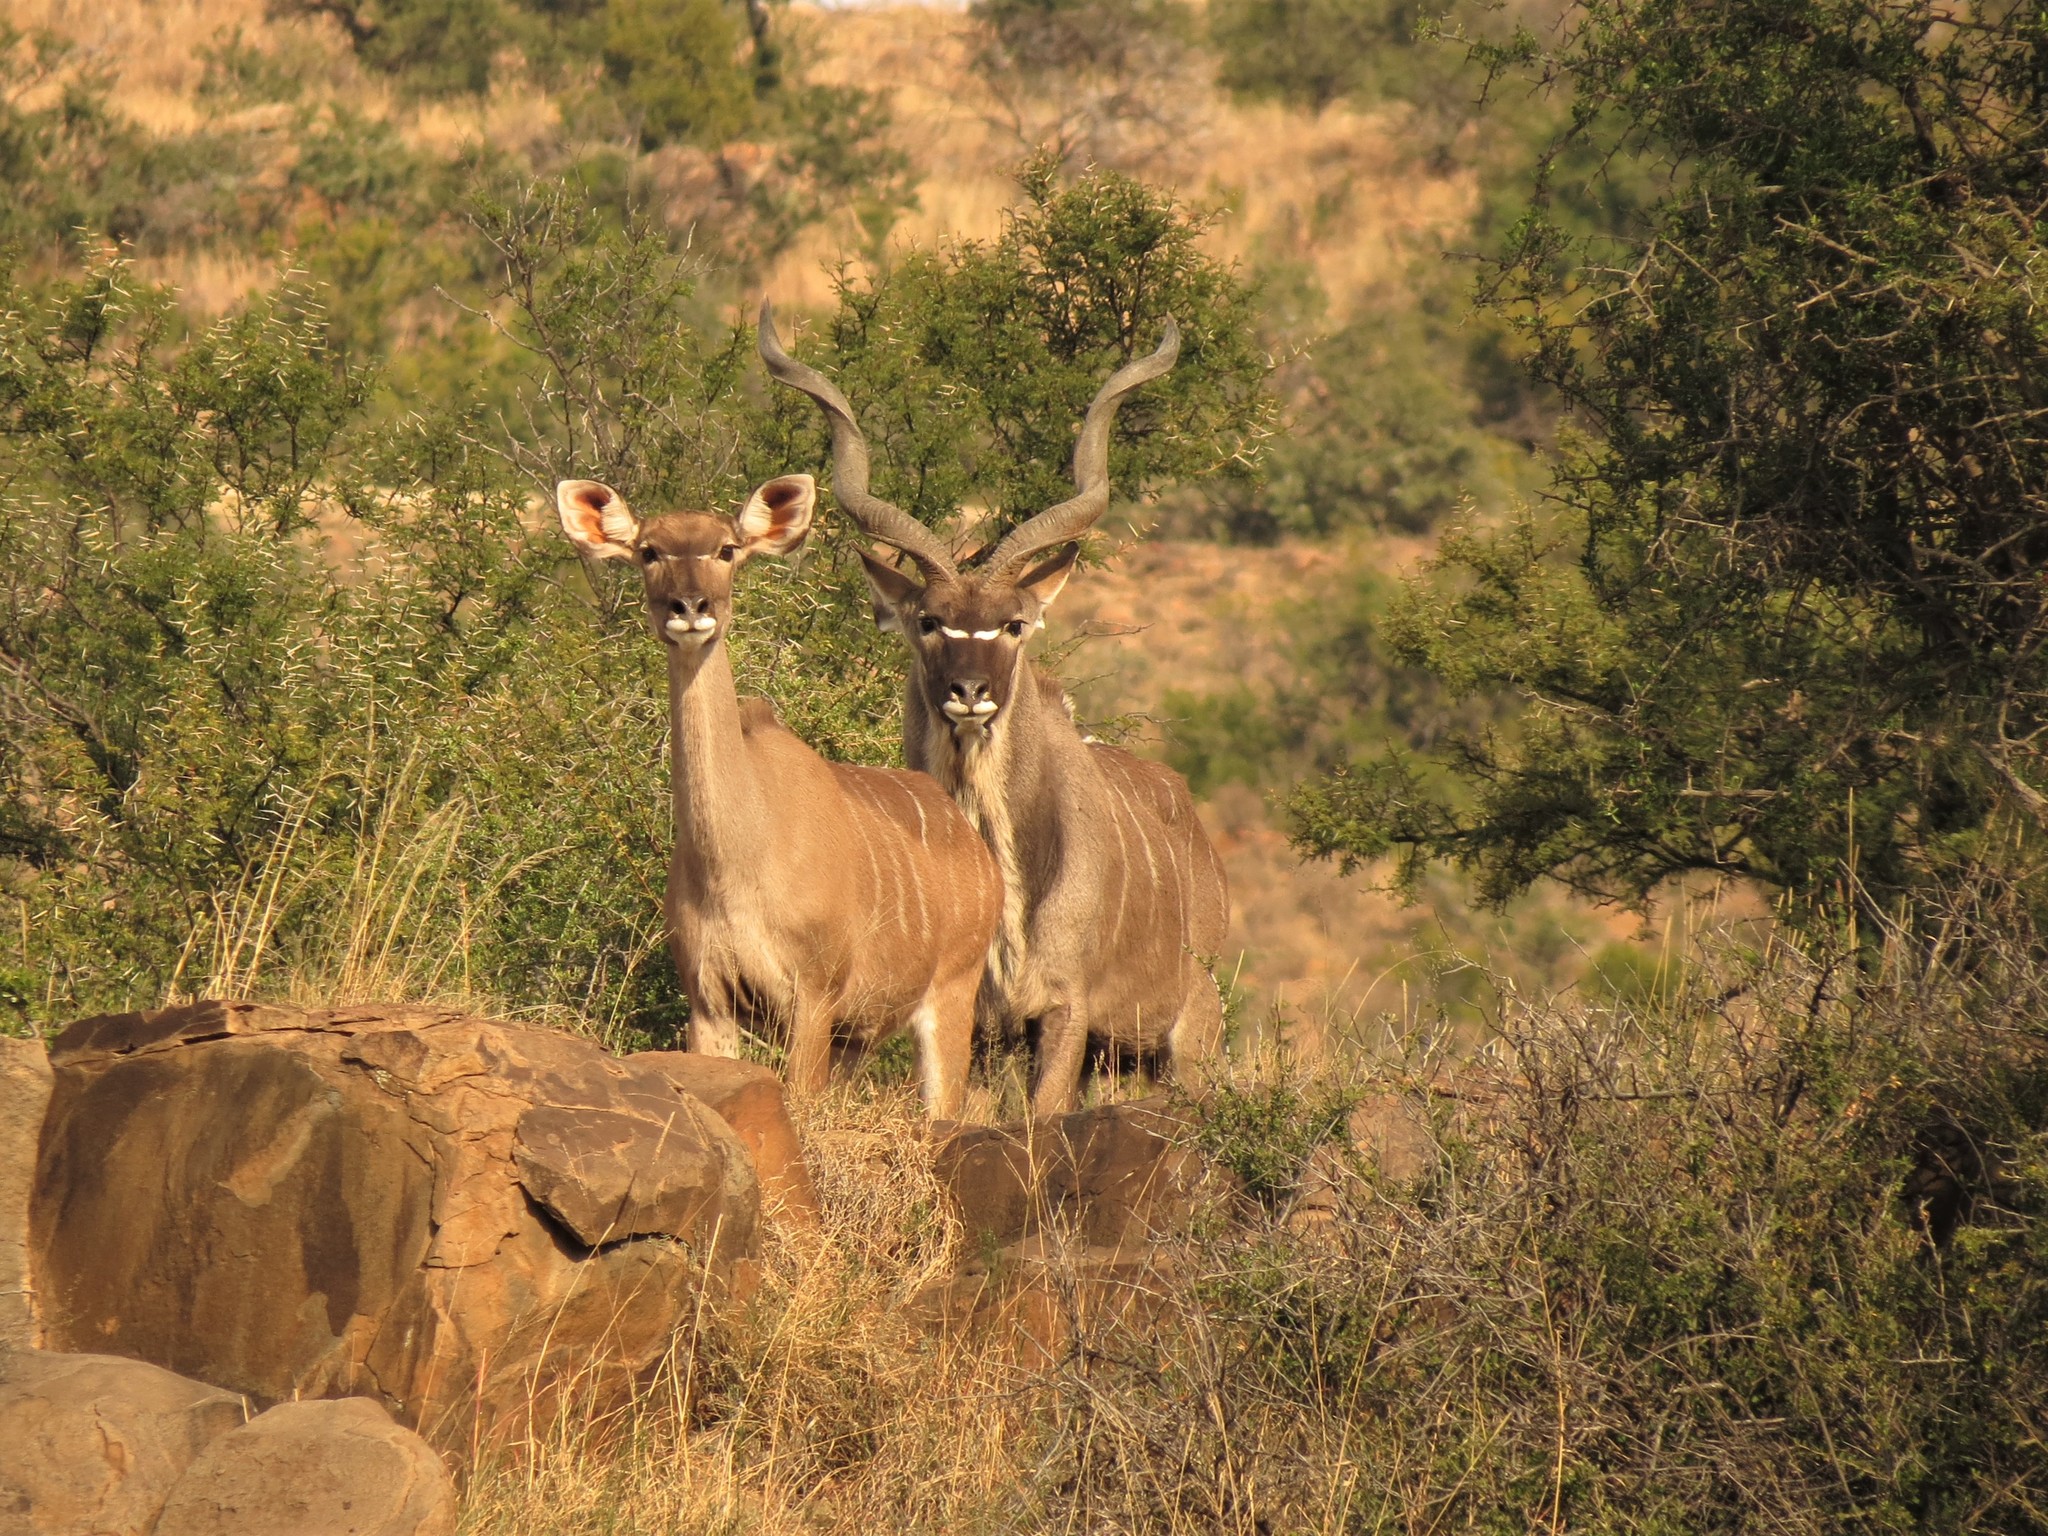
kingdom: Animalia
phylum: Chordata
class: Mammalia
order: Artiodactyla
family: Bovidae
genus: Tragelaphus
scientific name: Tragelaphus strepsiceros
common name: Greater kudu
